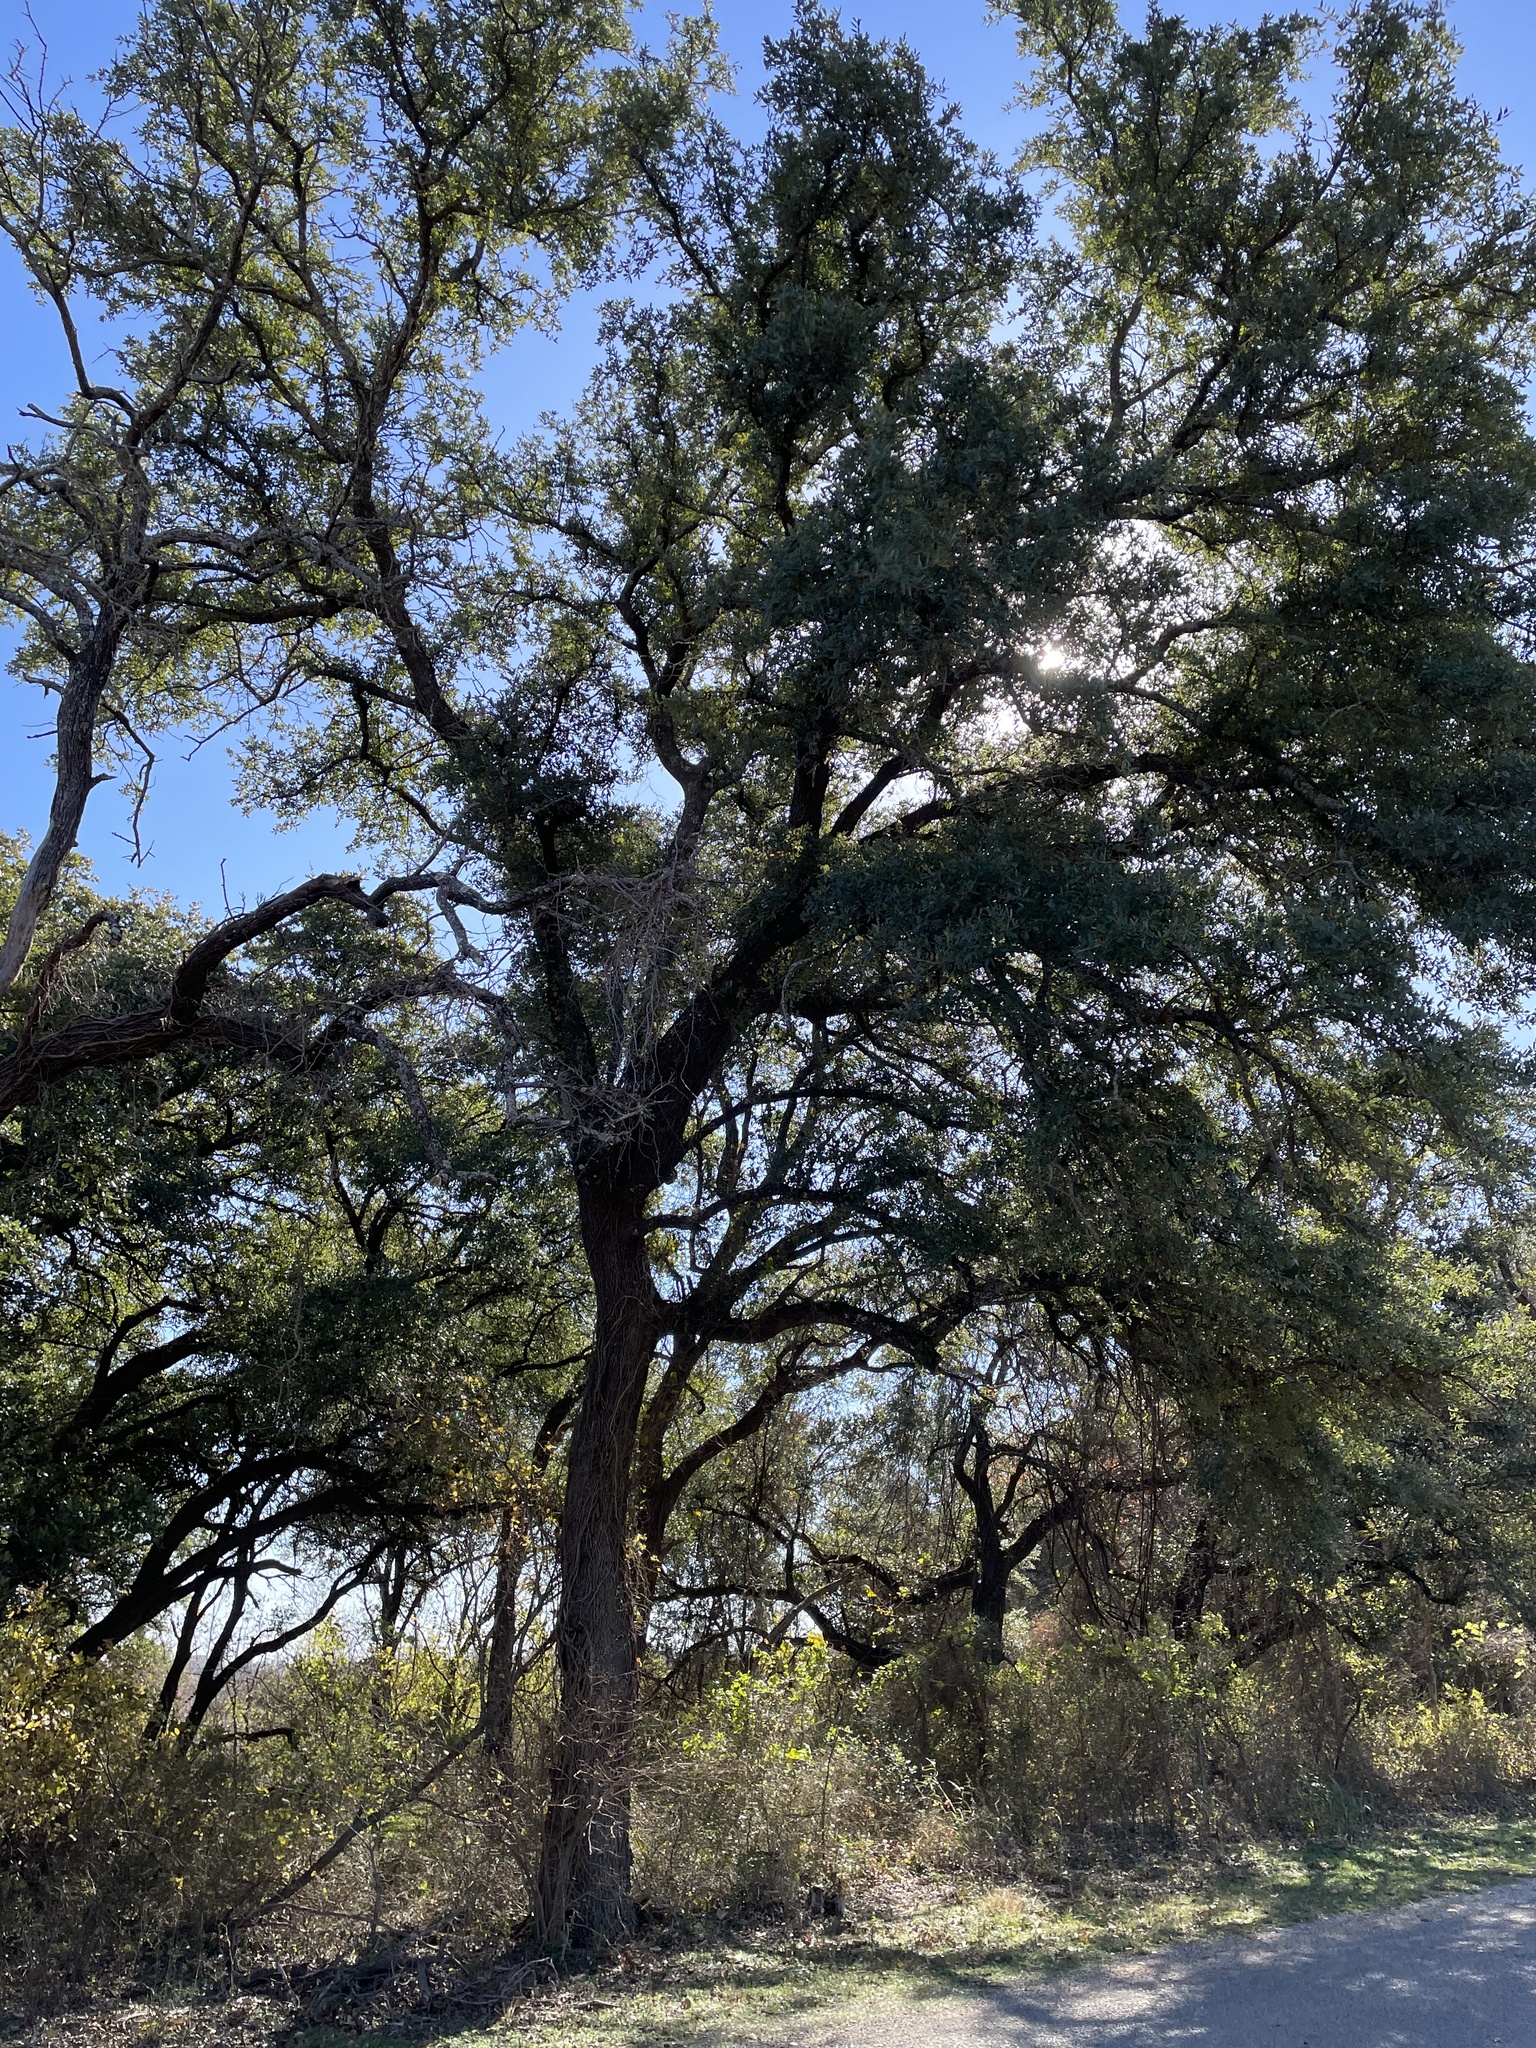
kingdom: Plantae
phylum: Tracheophyta
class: Magnoliopsida
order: Fagales
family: Fagaceae
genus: Quercus
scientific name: Quercus fusiformis
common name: Texas live oak
